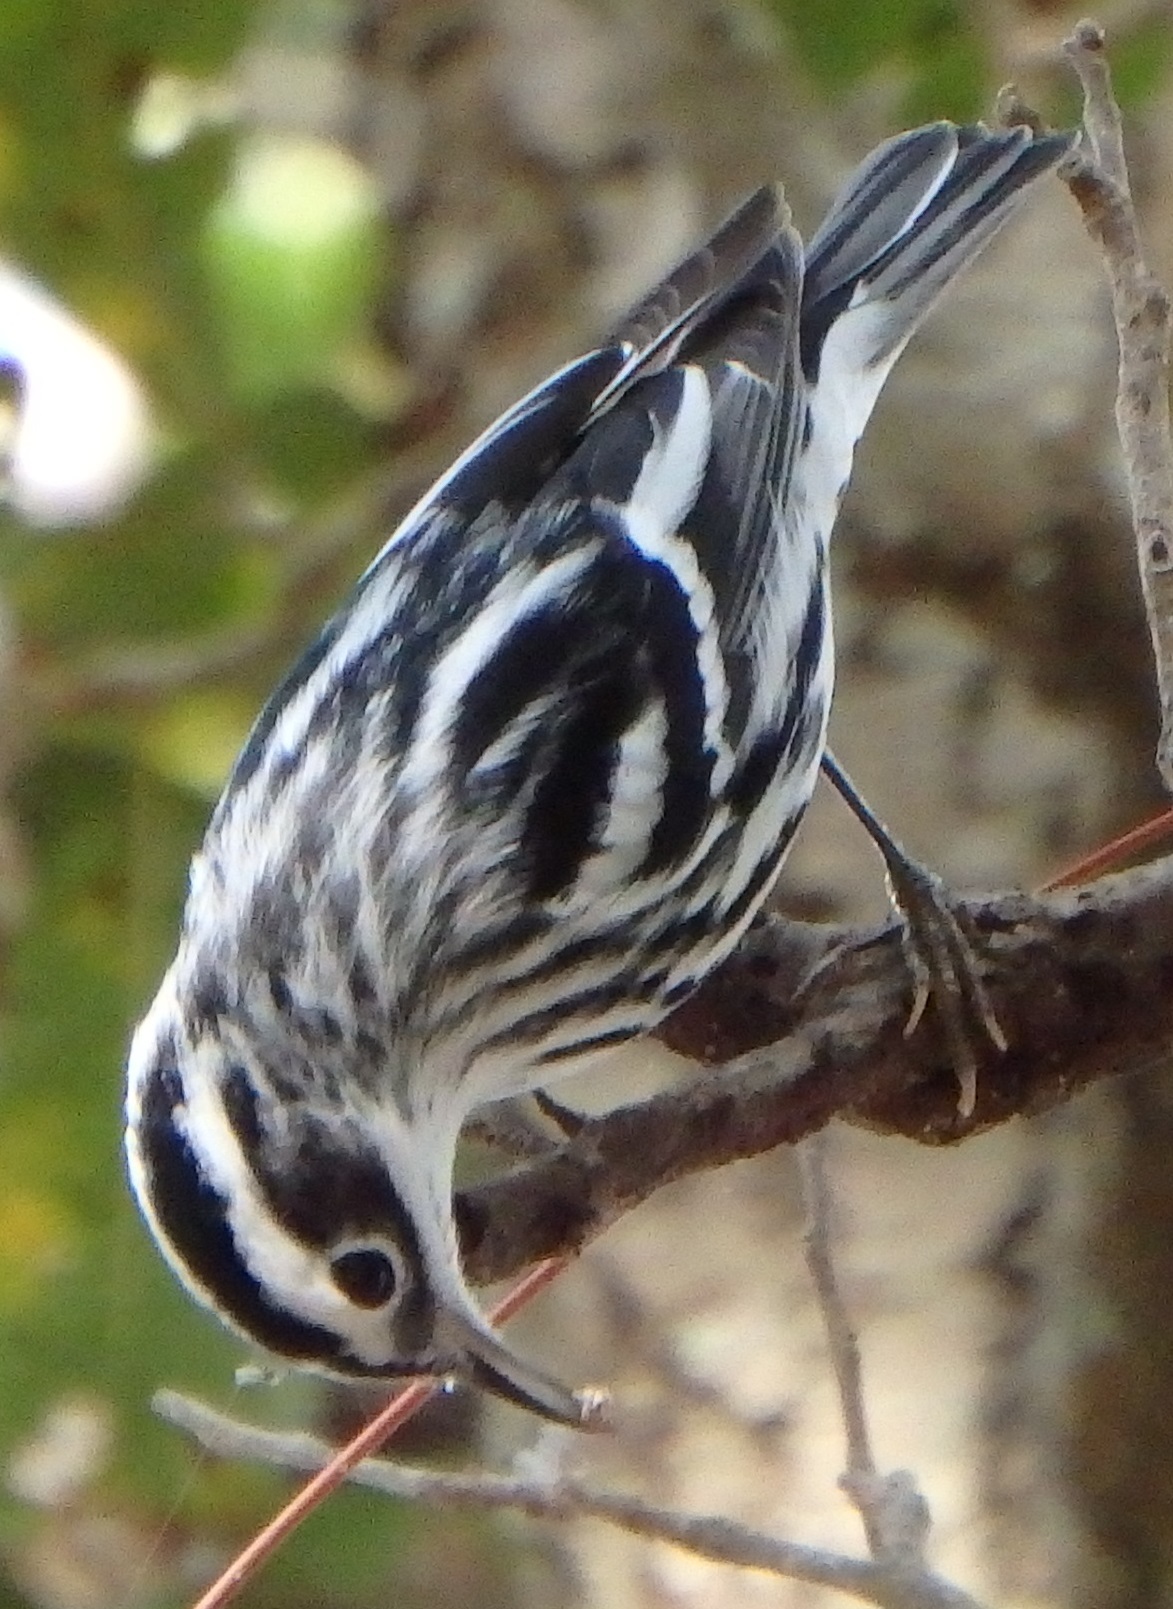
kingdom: Animalia
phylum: Chordata
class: Aves
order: Passeriformes
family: Parulidae
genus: Mniotilta
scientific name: Mniotilta varia
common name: Black-and-white warbler
